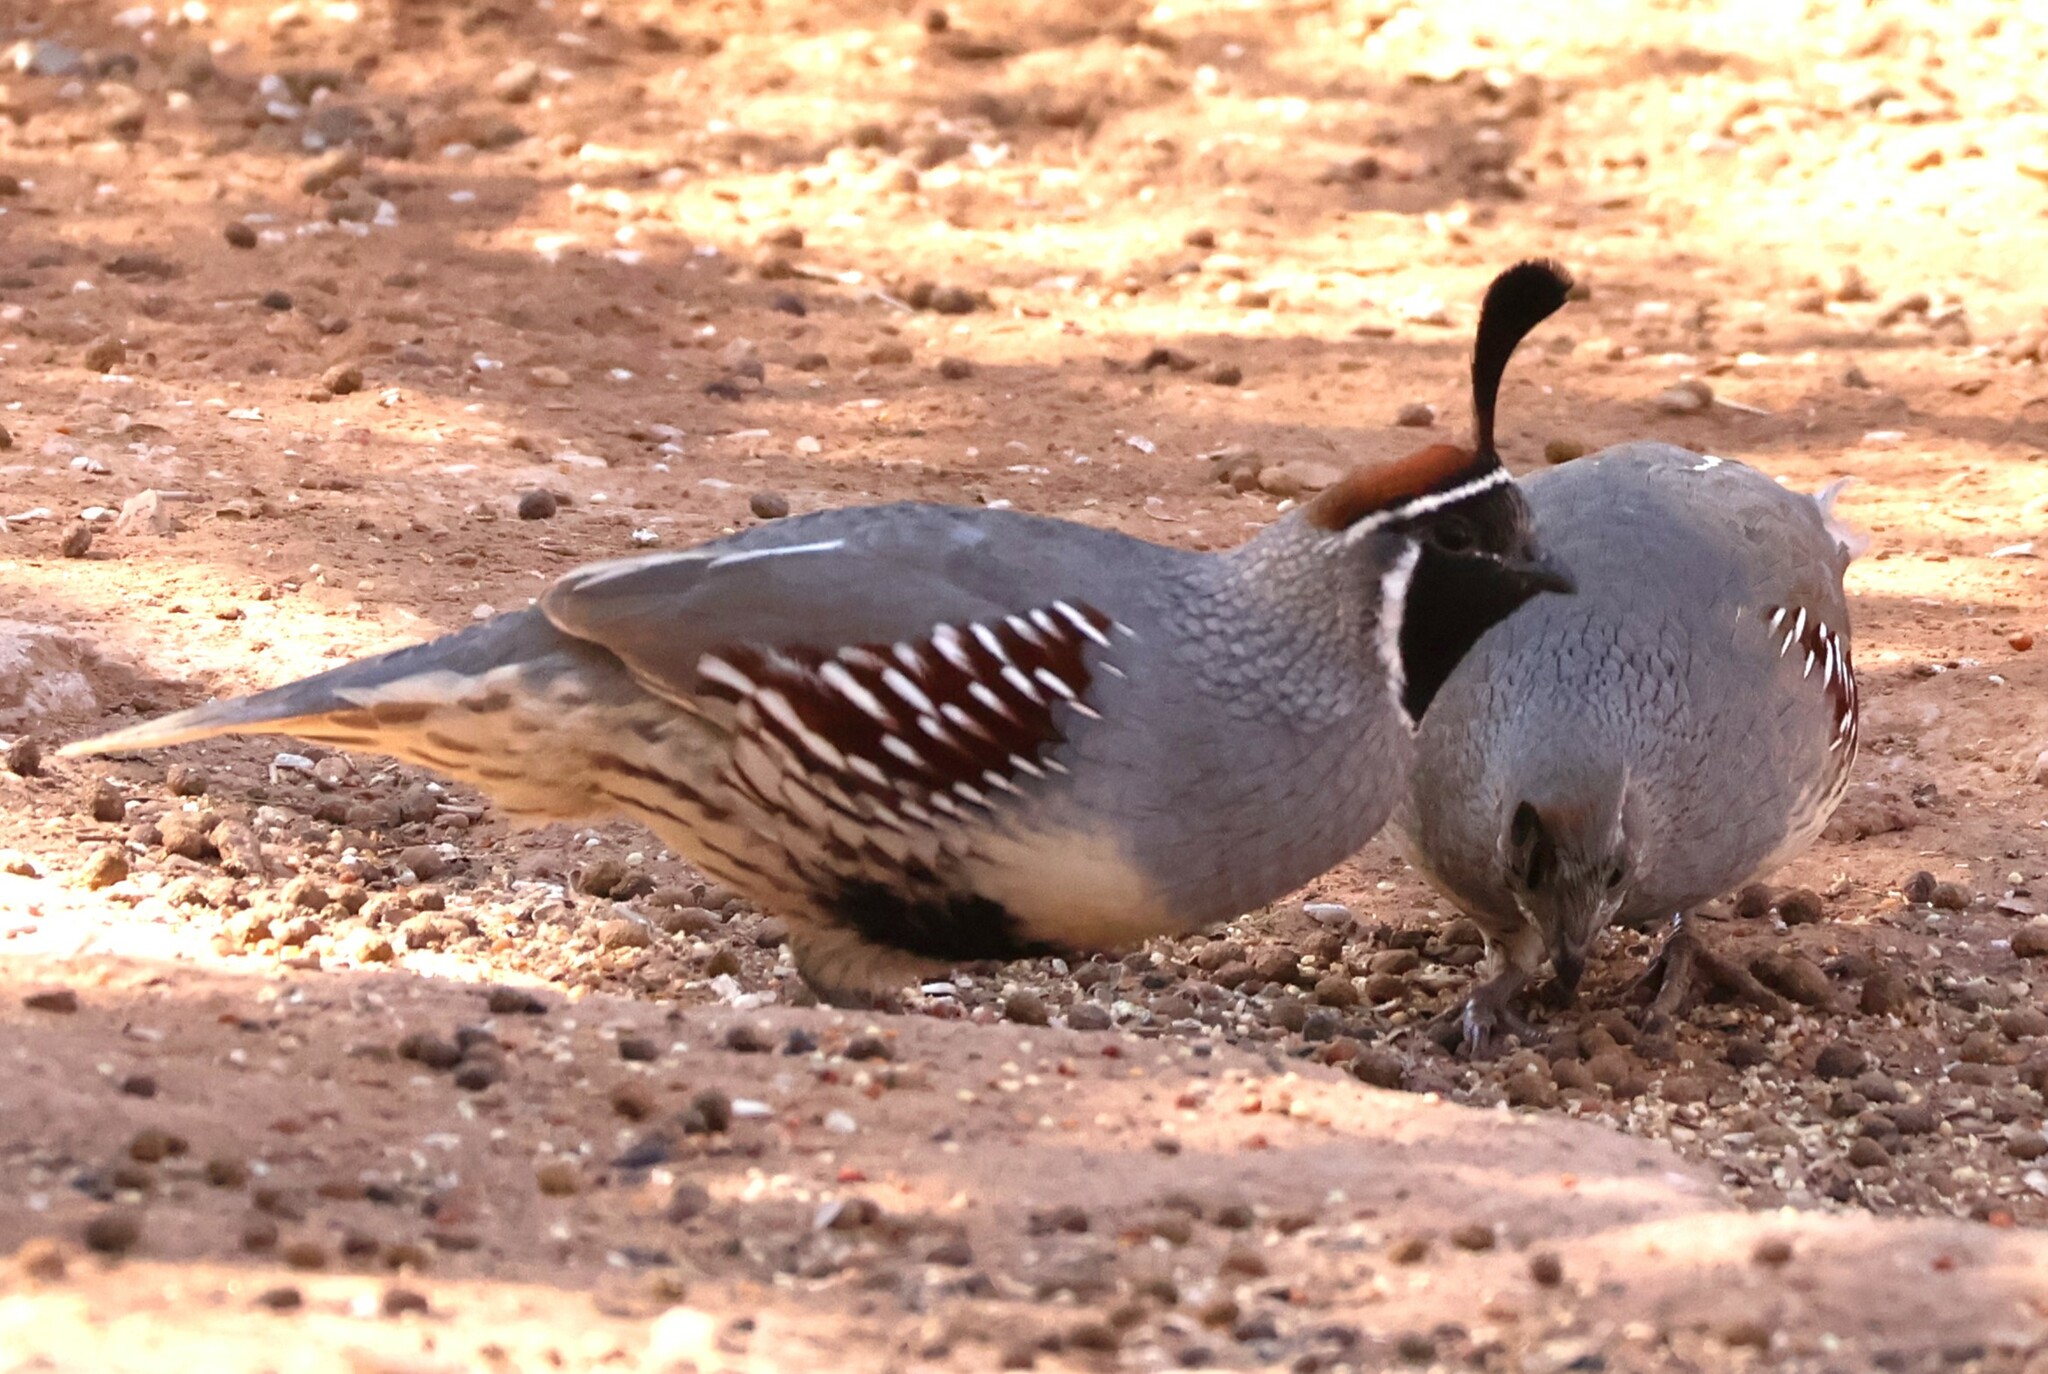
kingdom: Animalia
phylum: Chordata
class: Aves
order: Galliformes
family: Odontophoridae
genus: Callipepla
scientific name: Callipepla gambelii
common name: Gambel's quail
